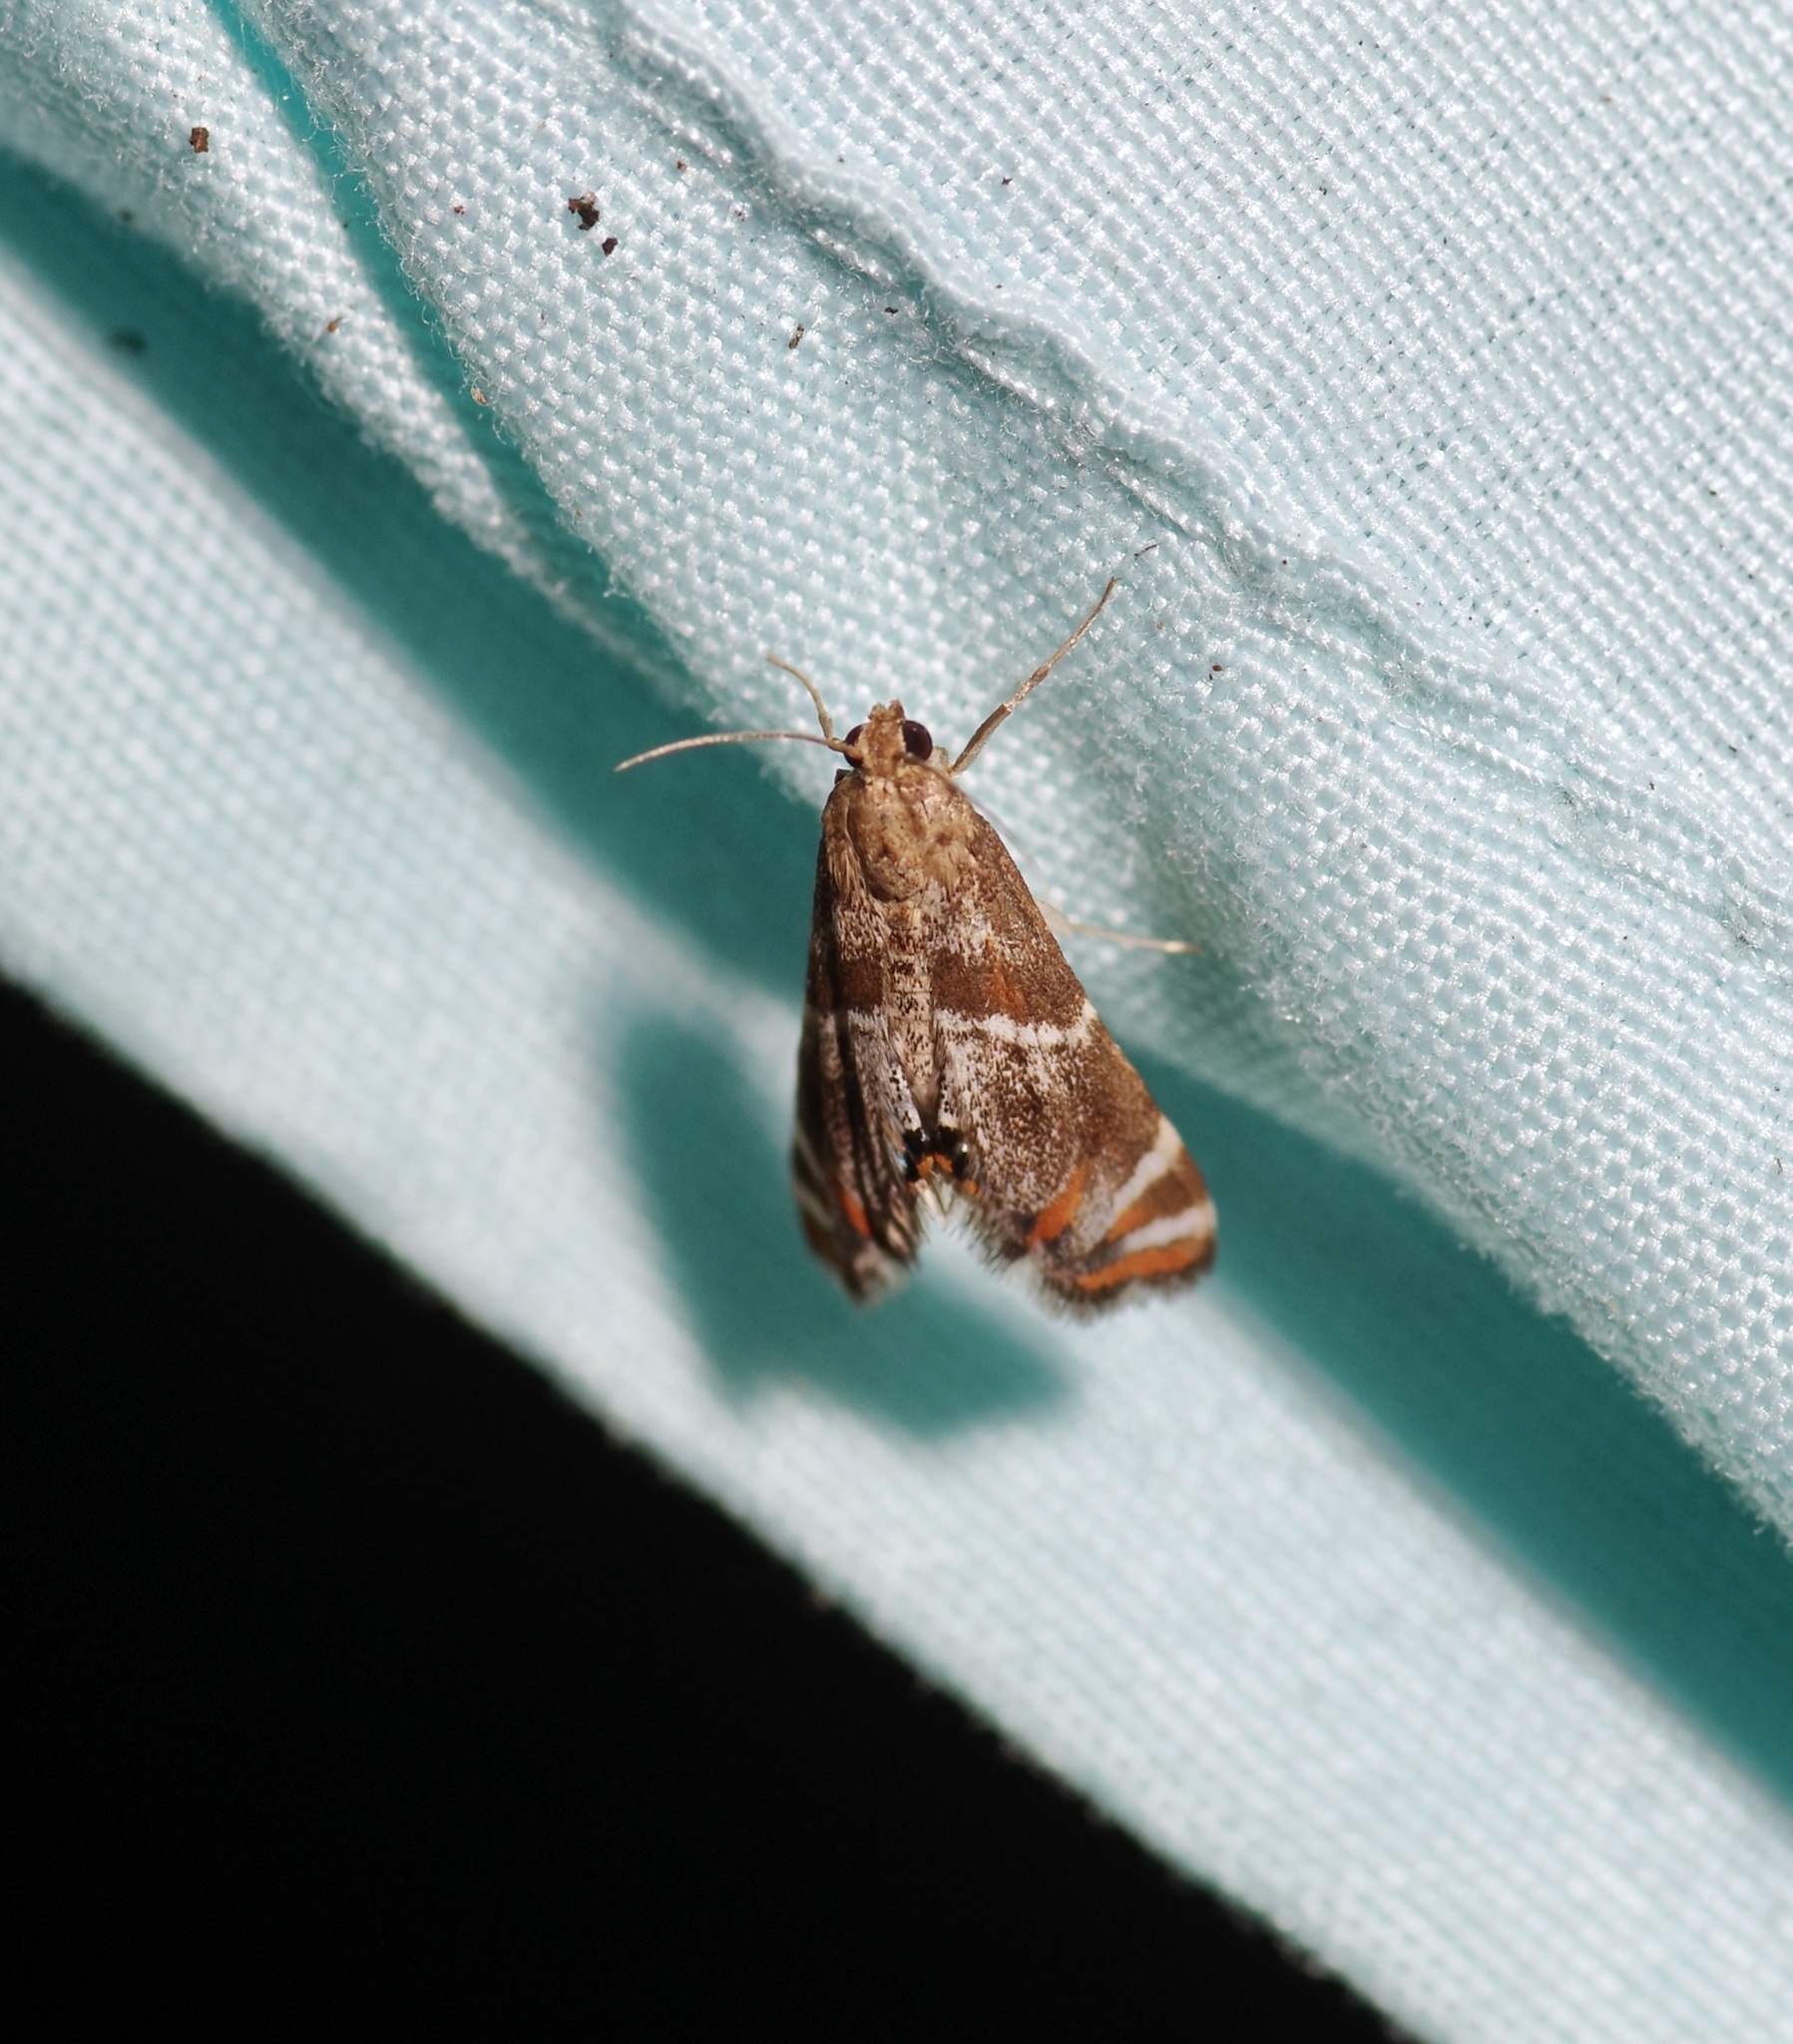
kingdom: Animalia
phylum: Arthropoda
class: Insecta
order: Lepidoptera
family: Crambidae
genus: Petrophila
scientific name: Petrophila jaliscalis
